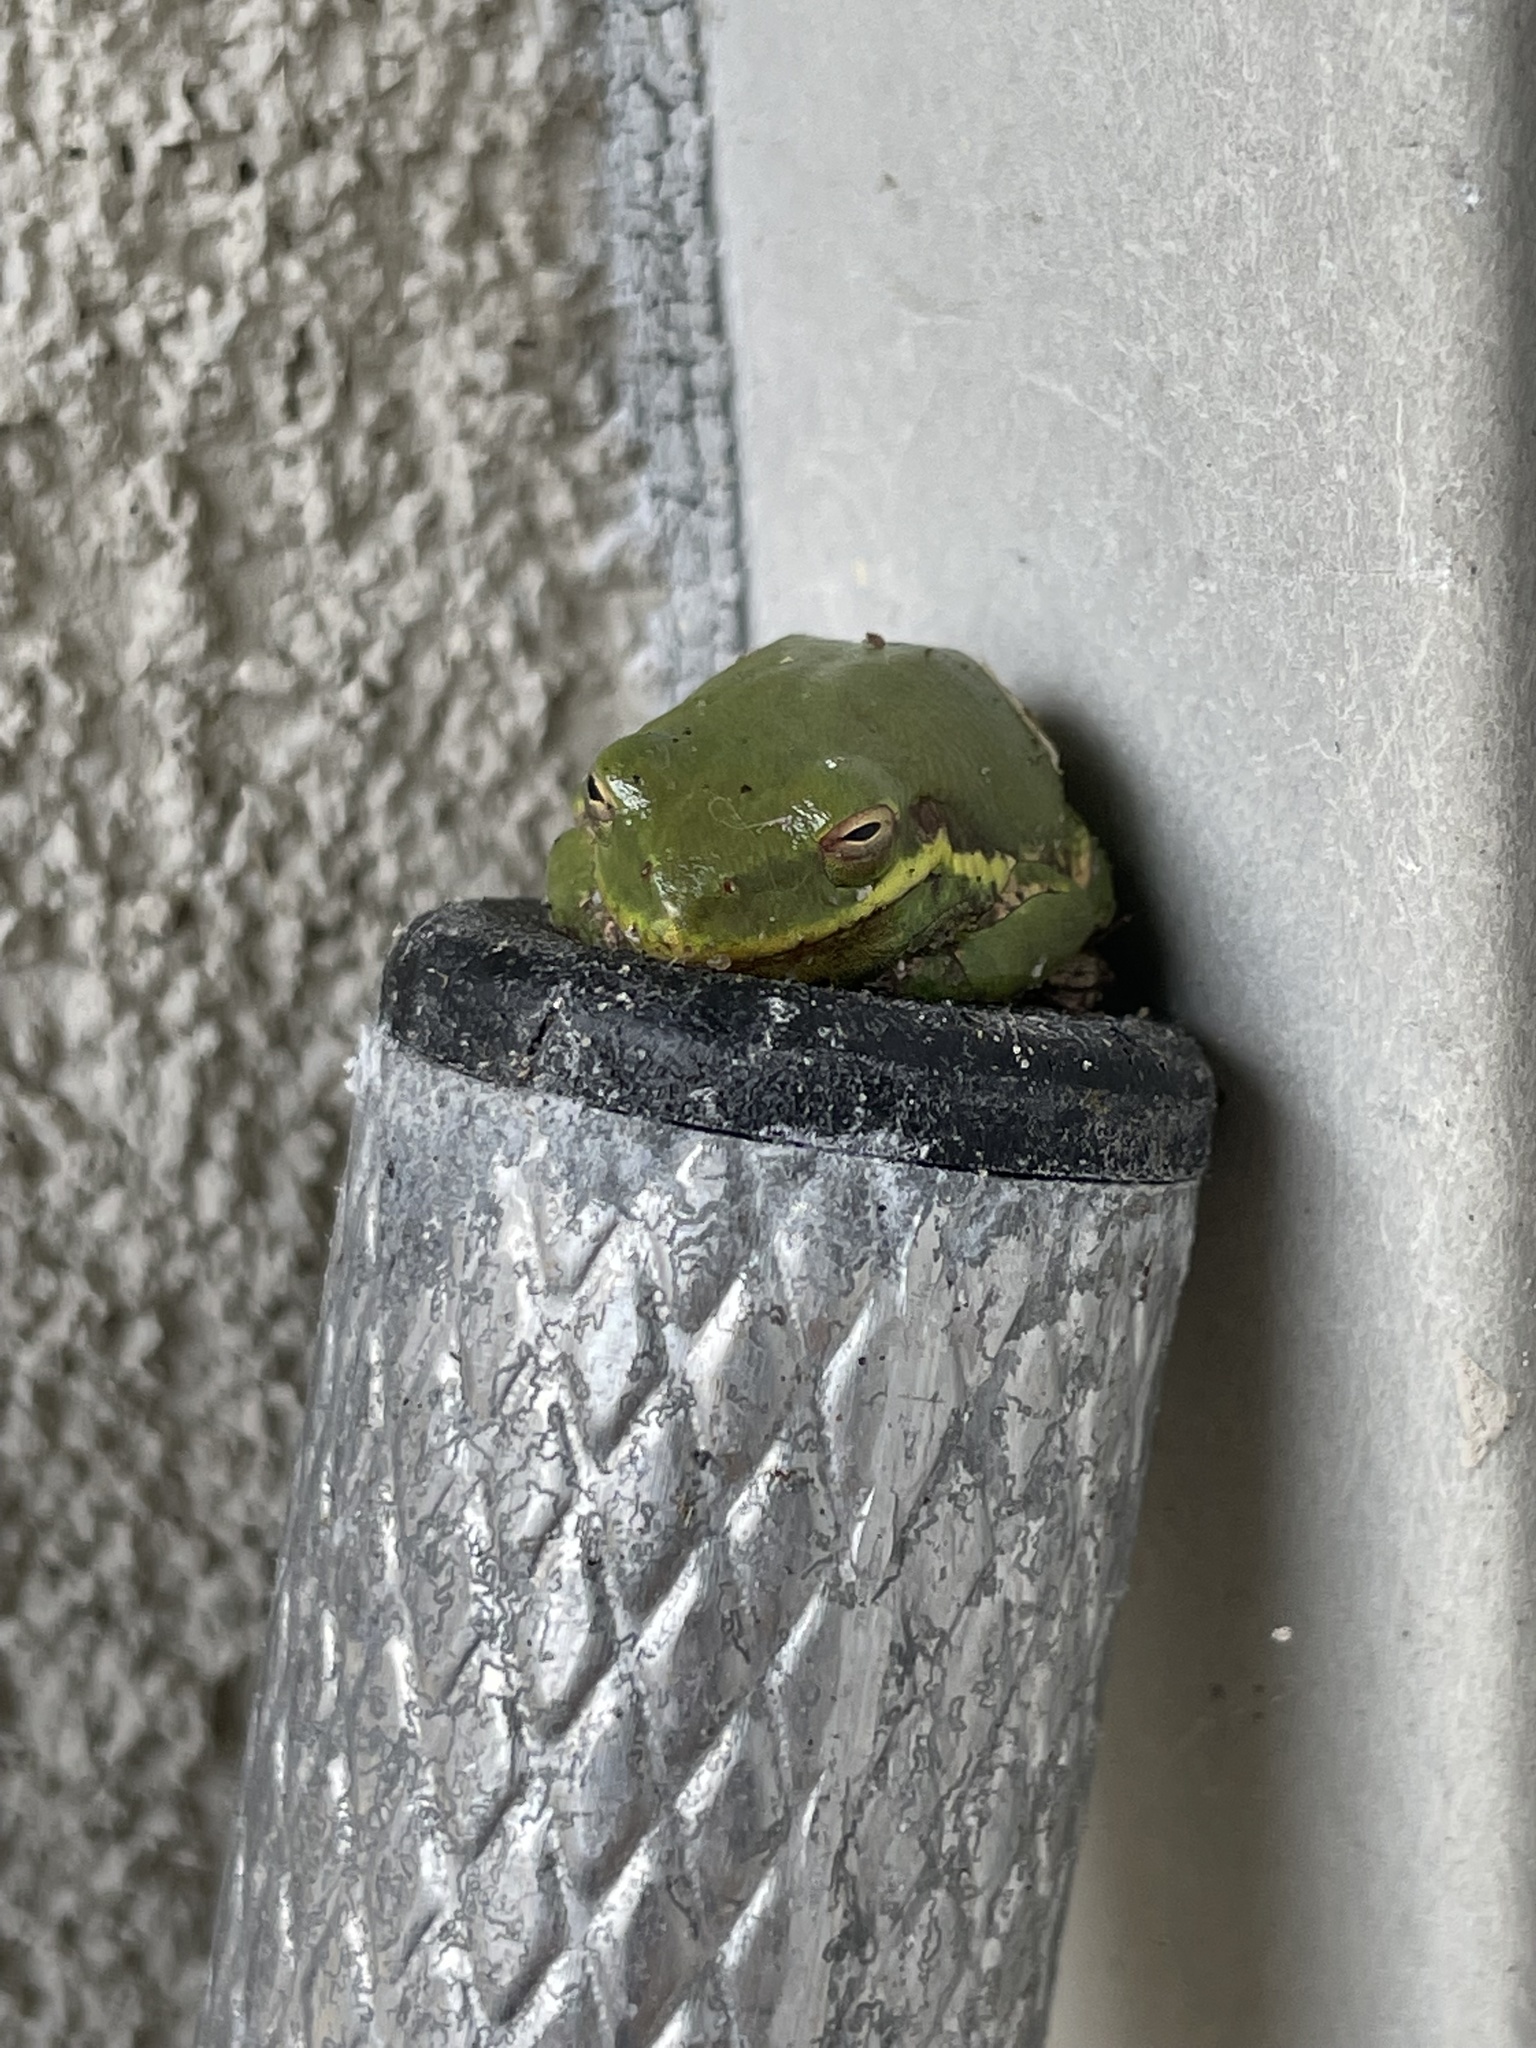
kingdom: Animalia
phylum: Chordata
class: Amphibia
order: Anura
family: Hylidae
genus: Dryophytes
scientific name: Dryophytes squirellus
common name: Squirrel treefrog
